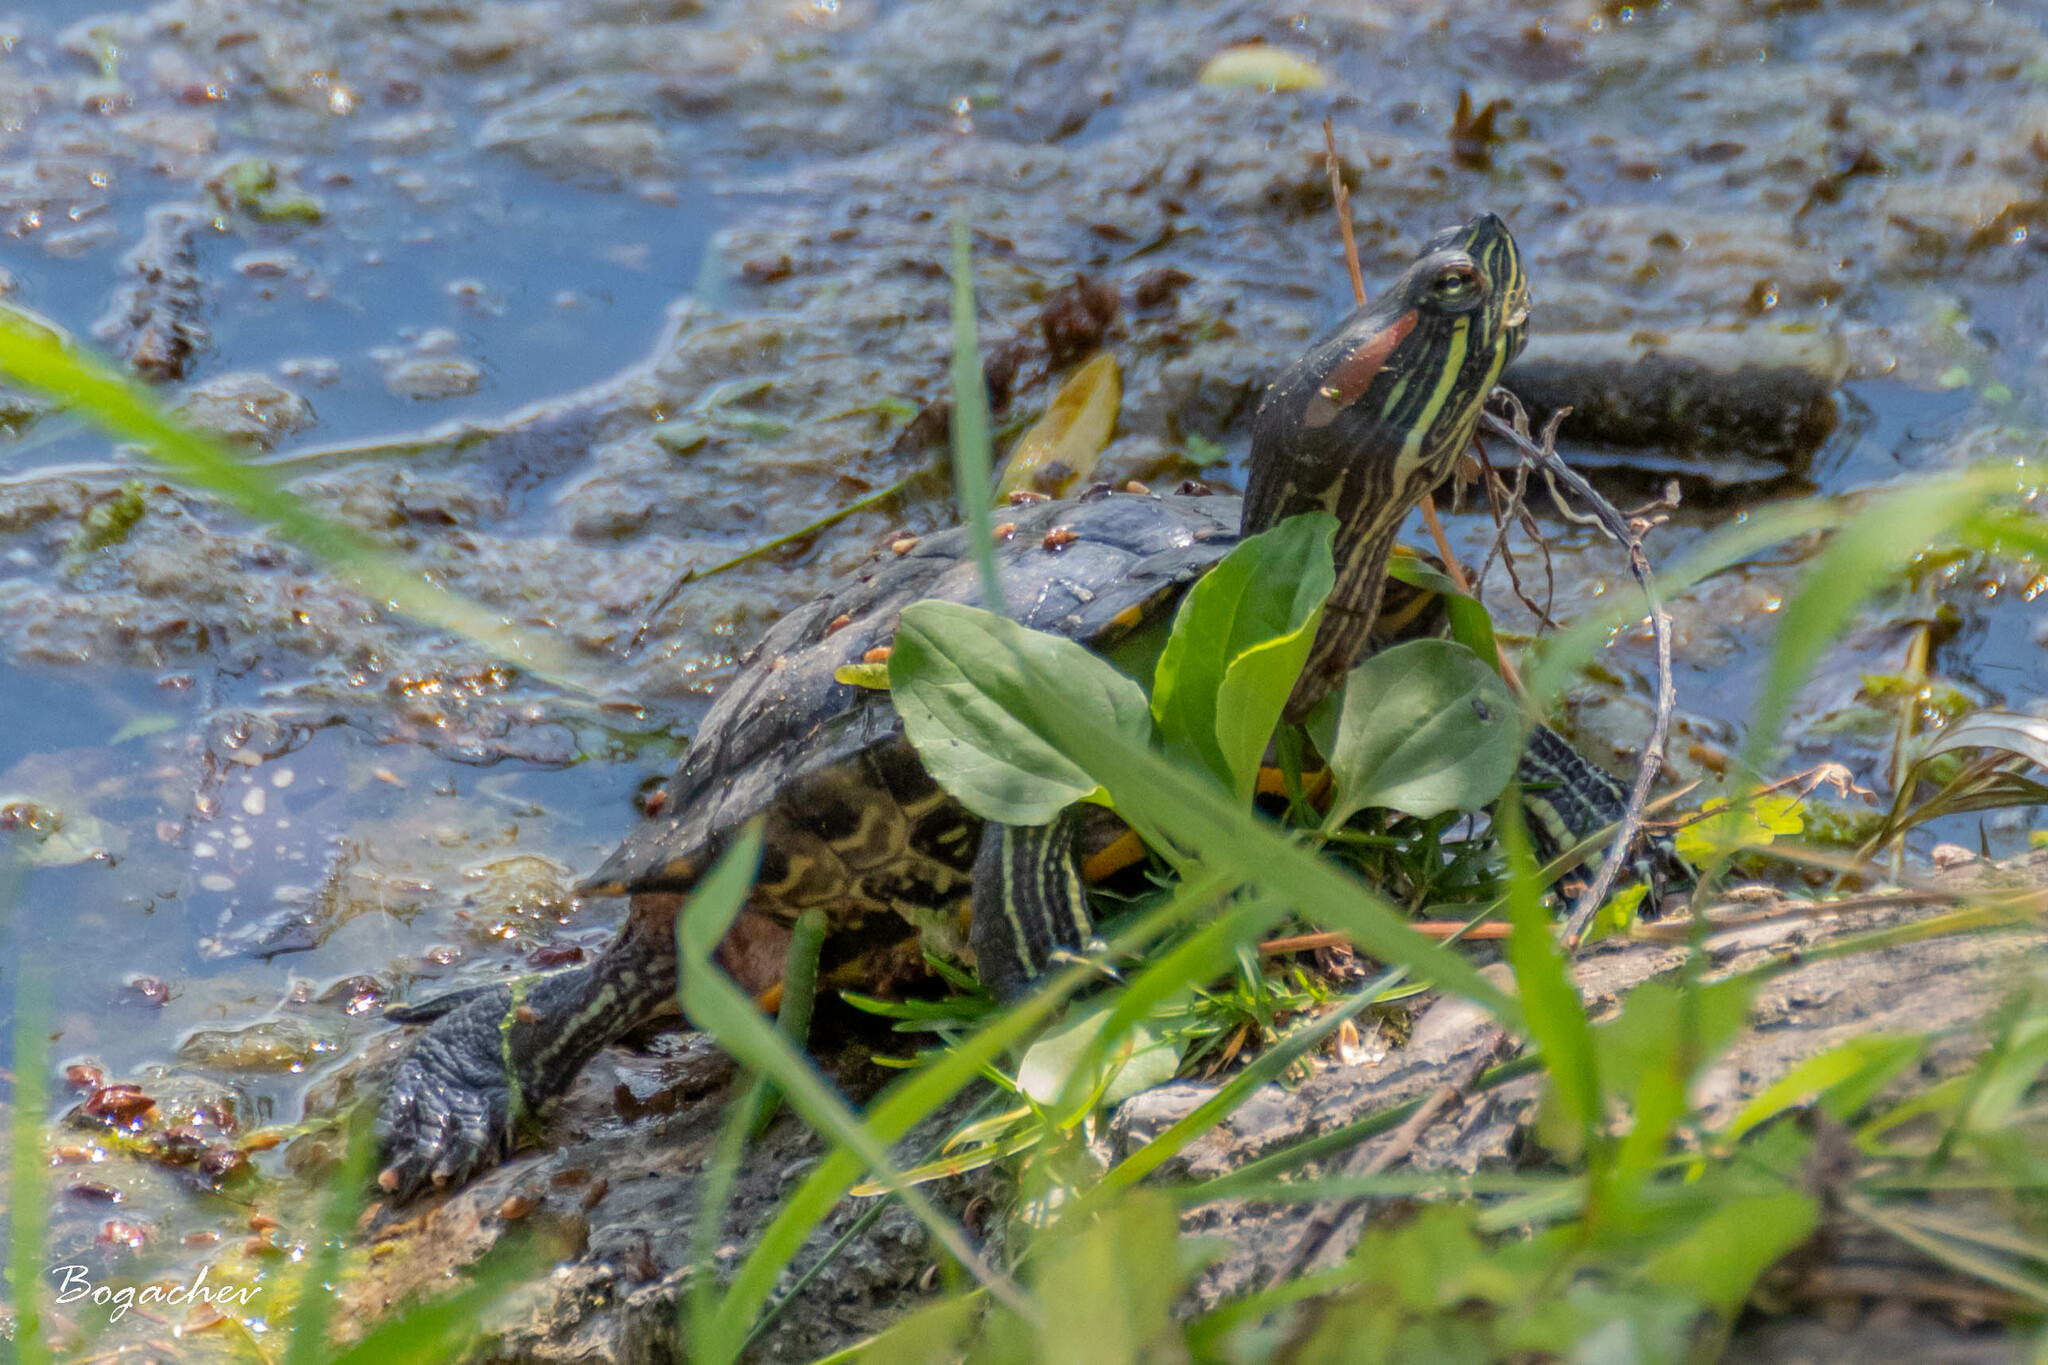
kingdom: Animalia
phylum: Chordata
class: Testudines
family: Emydidae
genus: Trachemys
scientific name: Trachemys scripta
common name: Slider
